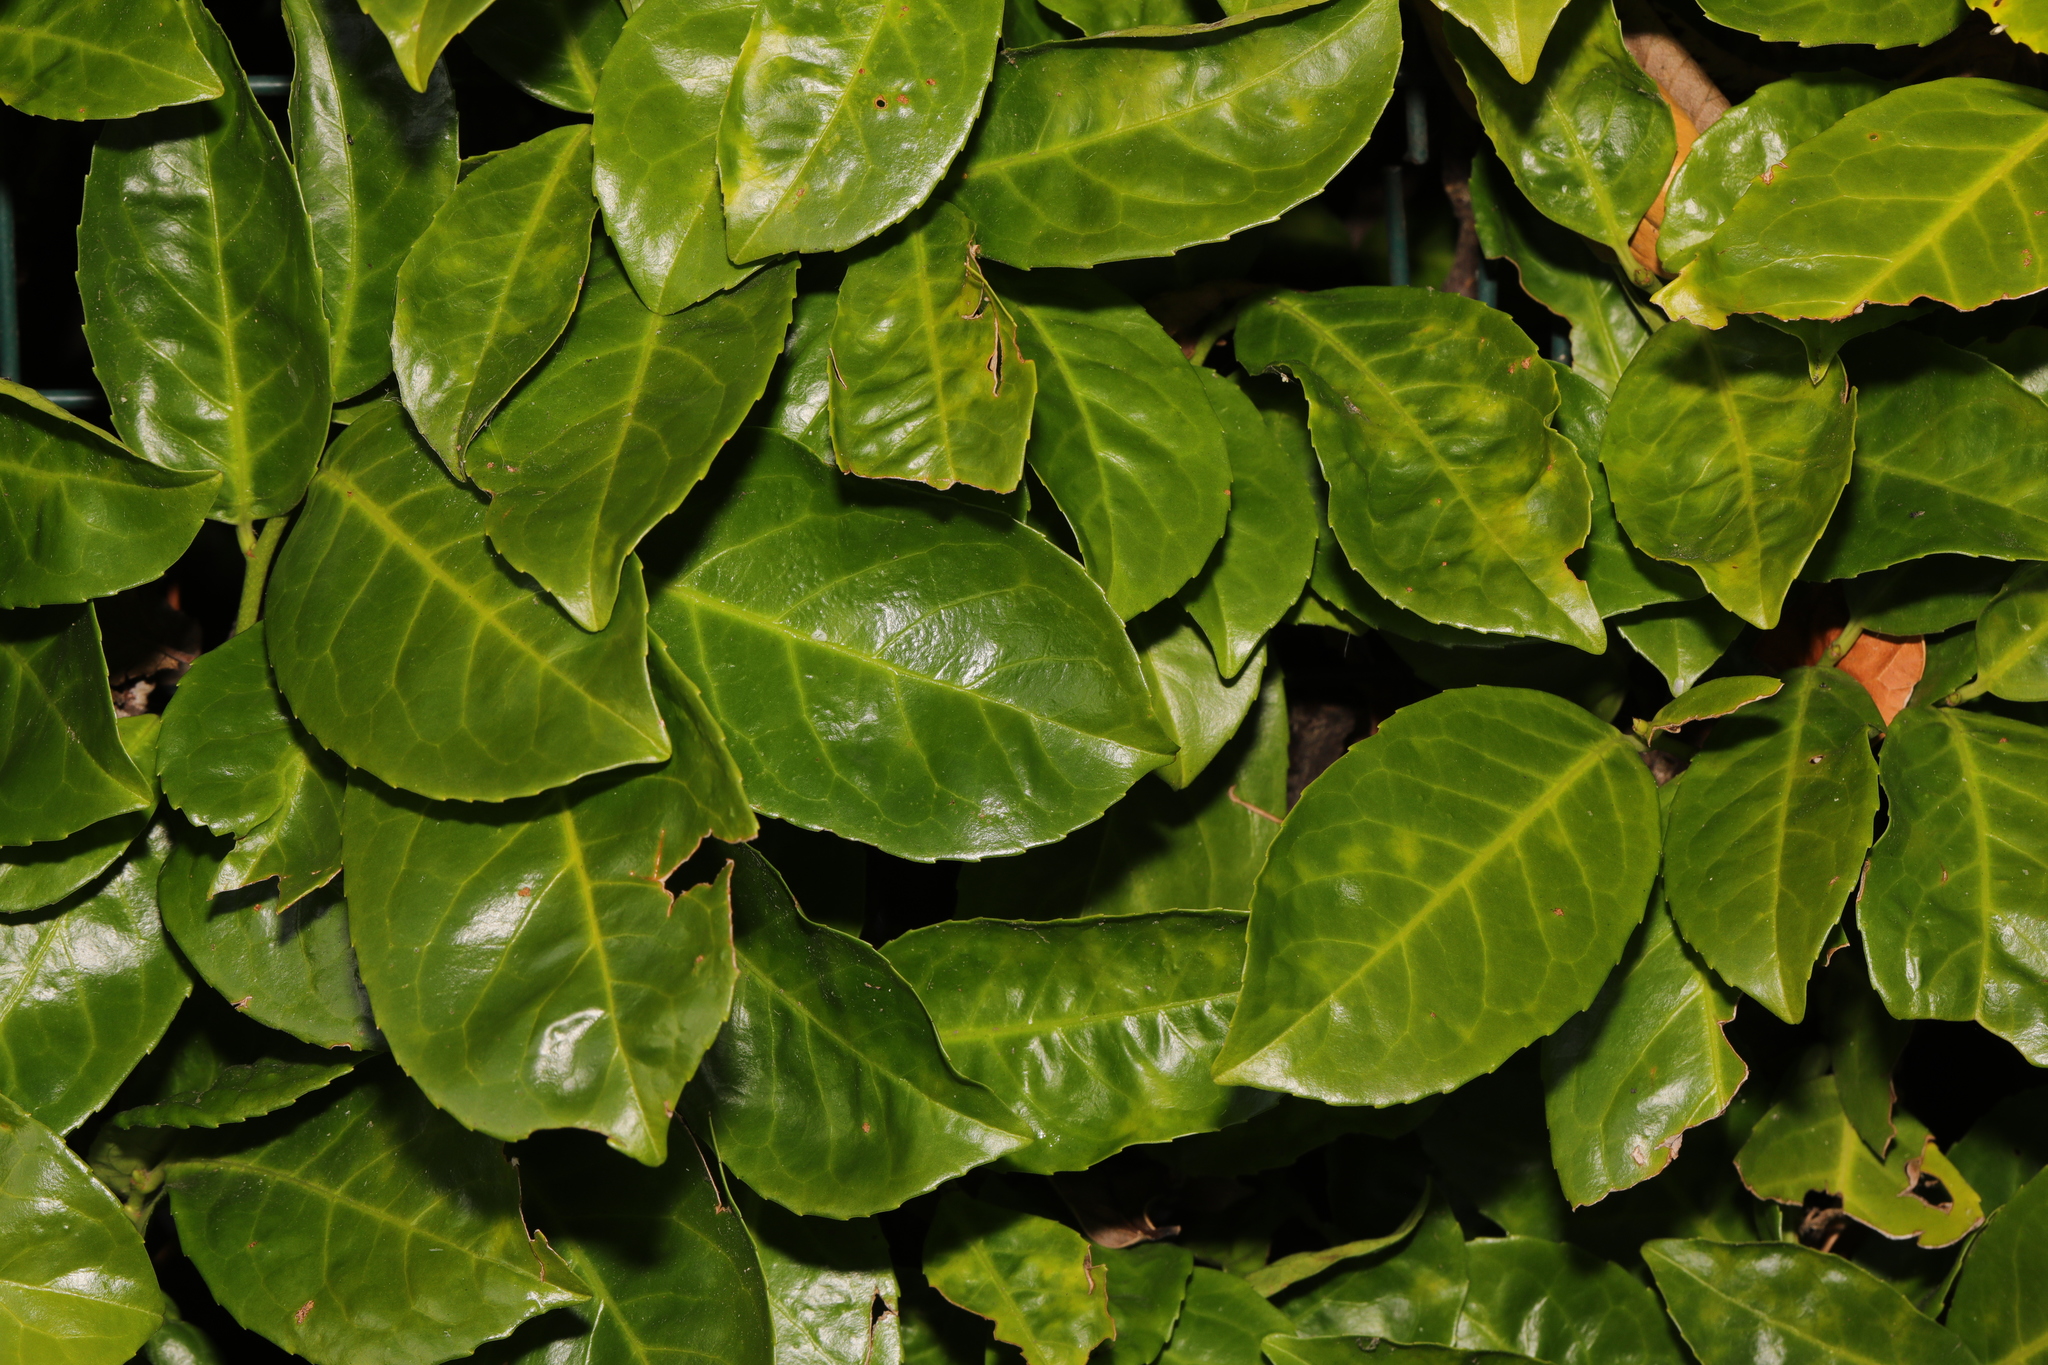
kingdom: Plantae
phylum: Tracheophyta
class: Magnoliopsida
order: Rosales
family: Rosaceae
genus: Prunus
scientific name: Prunus laurocerasus
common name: Cherry laurel
